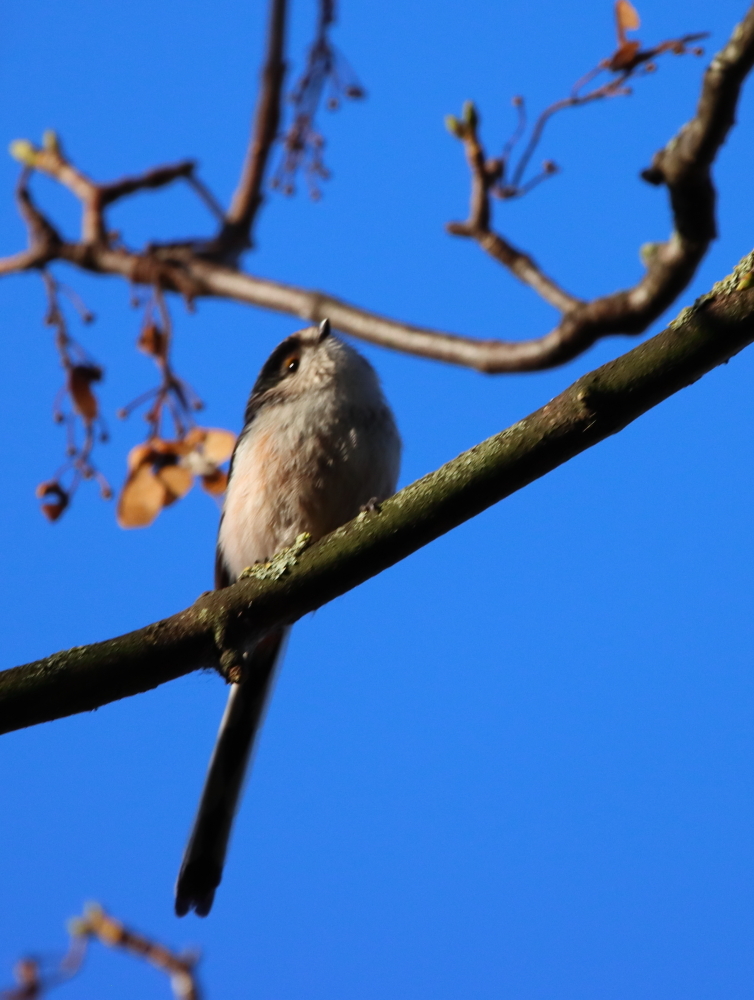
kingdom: Animalia
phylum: Chordata
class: Aves
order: Passeriformes
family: Aegithalidae
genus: Aegithalos
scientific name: Aegithalos caudatus
